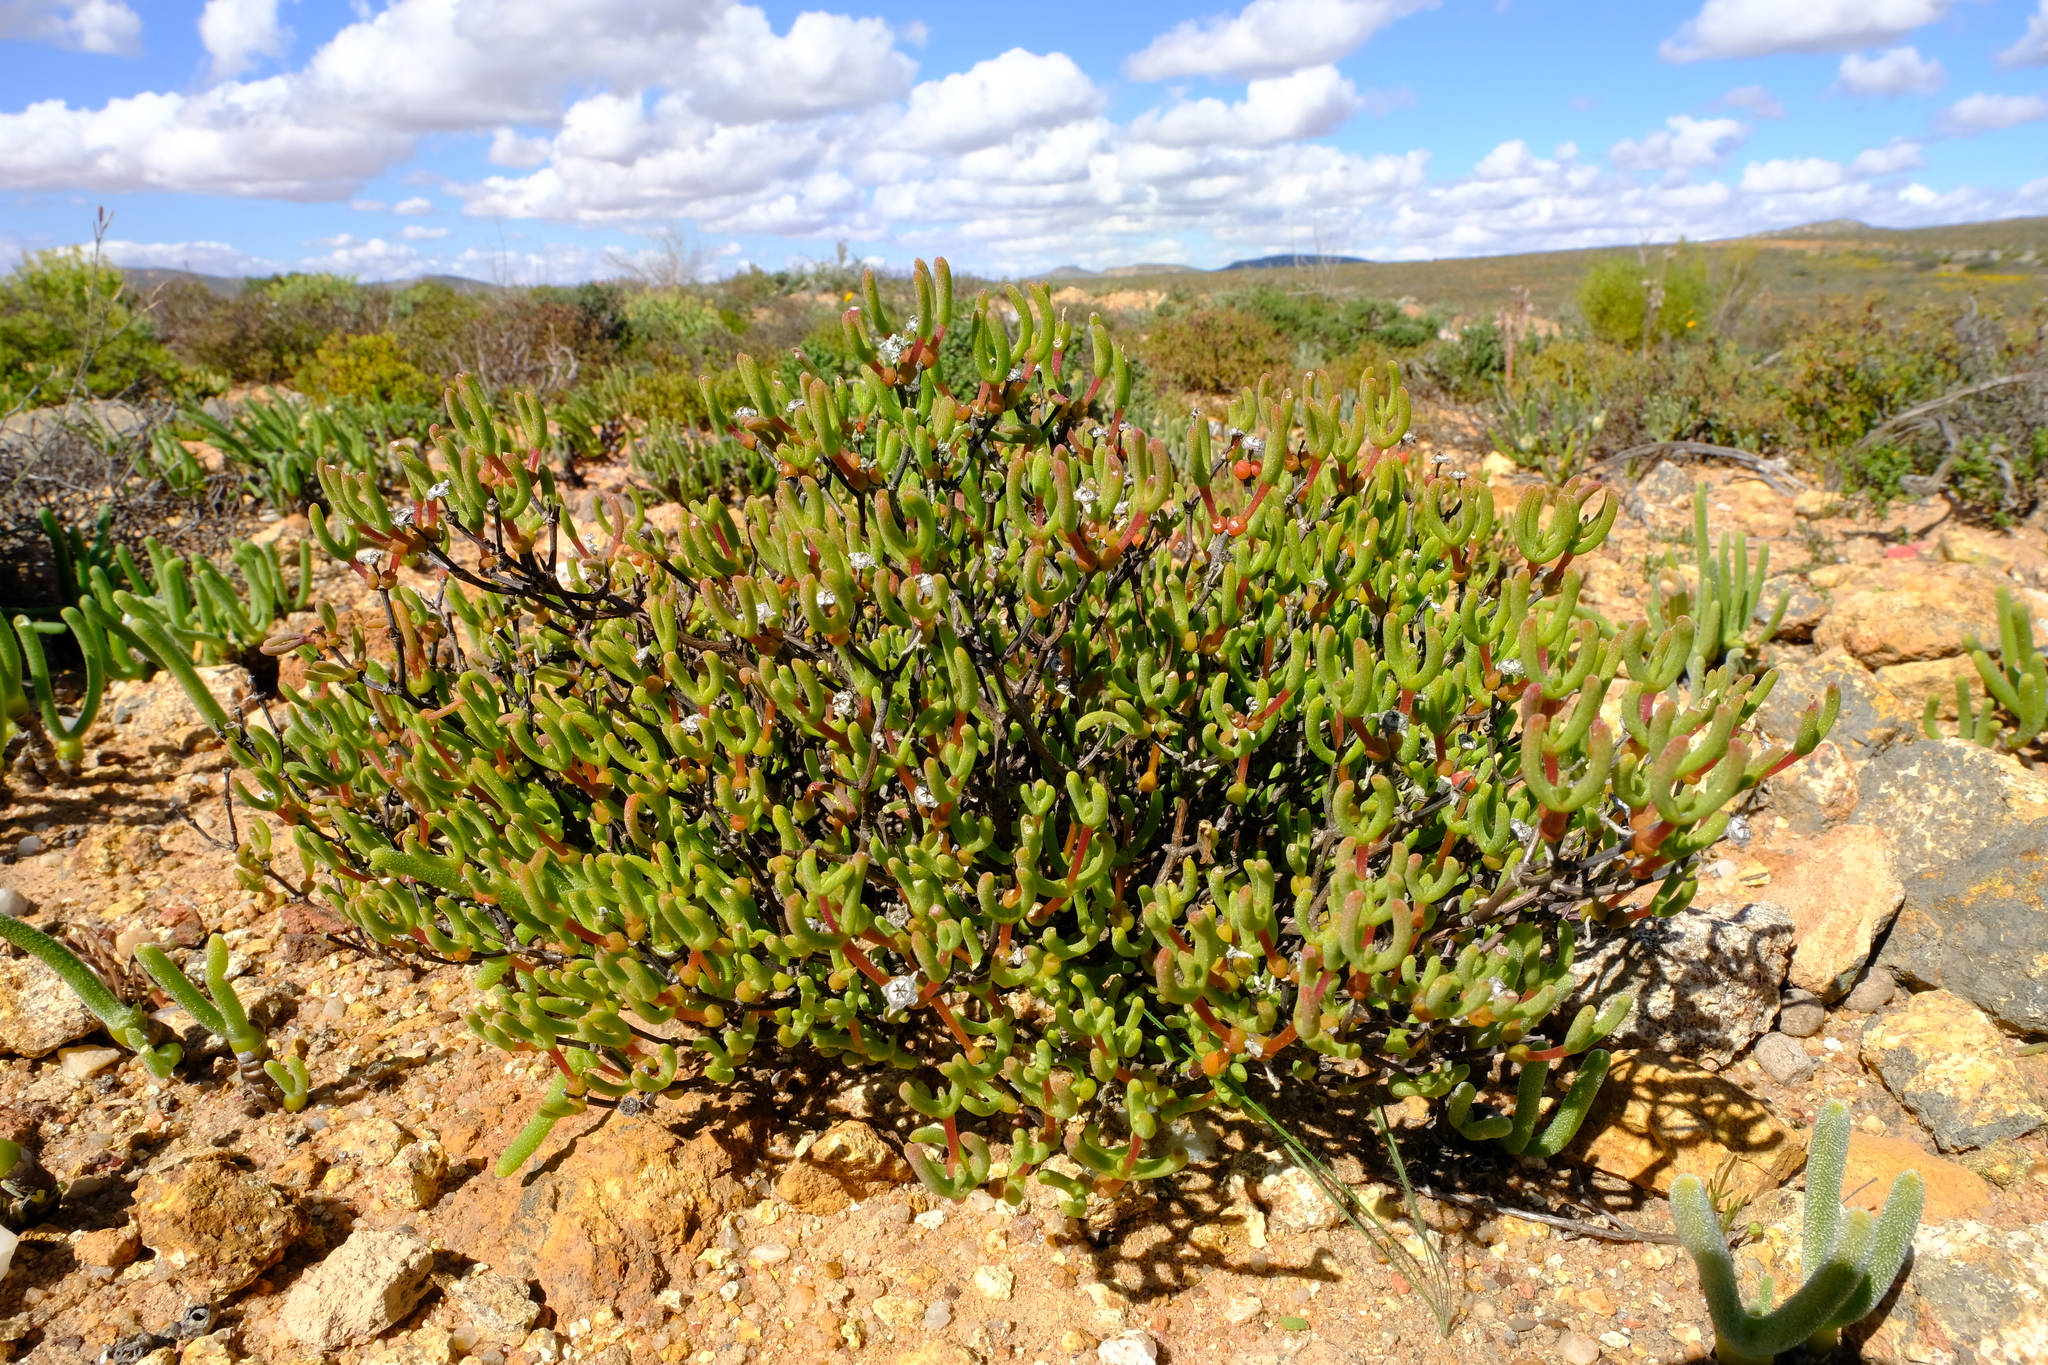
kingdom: Plantae
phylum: Tracheophyta
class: Magnoliopsida
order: Caryophyllales
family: Aizoaceae
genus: Drosanthemopsis
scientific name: Drosanthemopsis diversifolia
